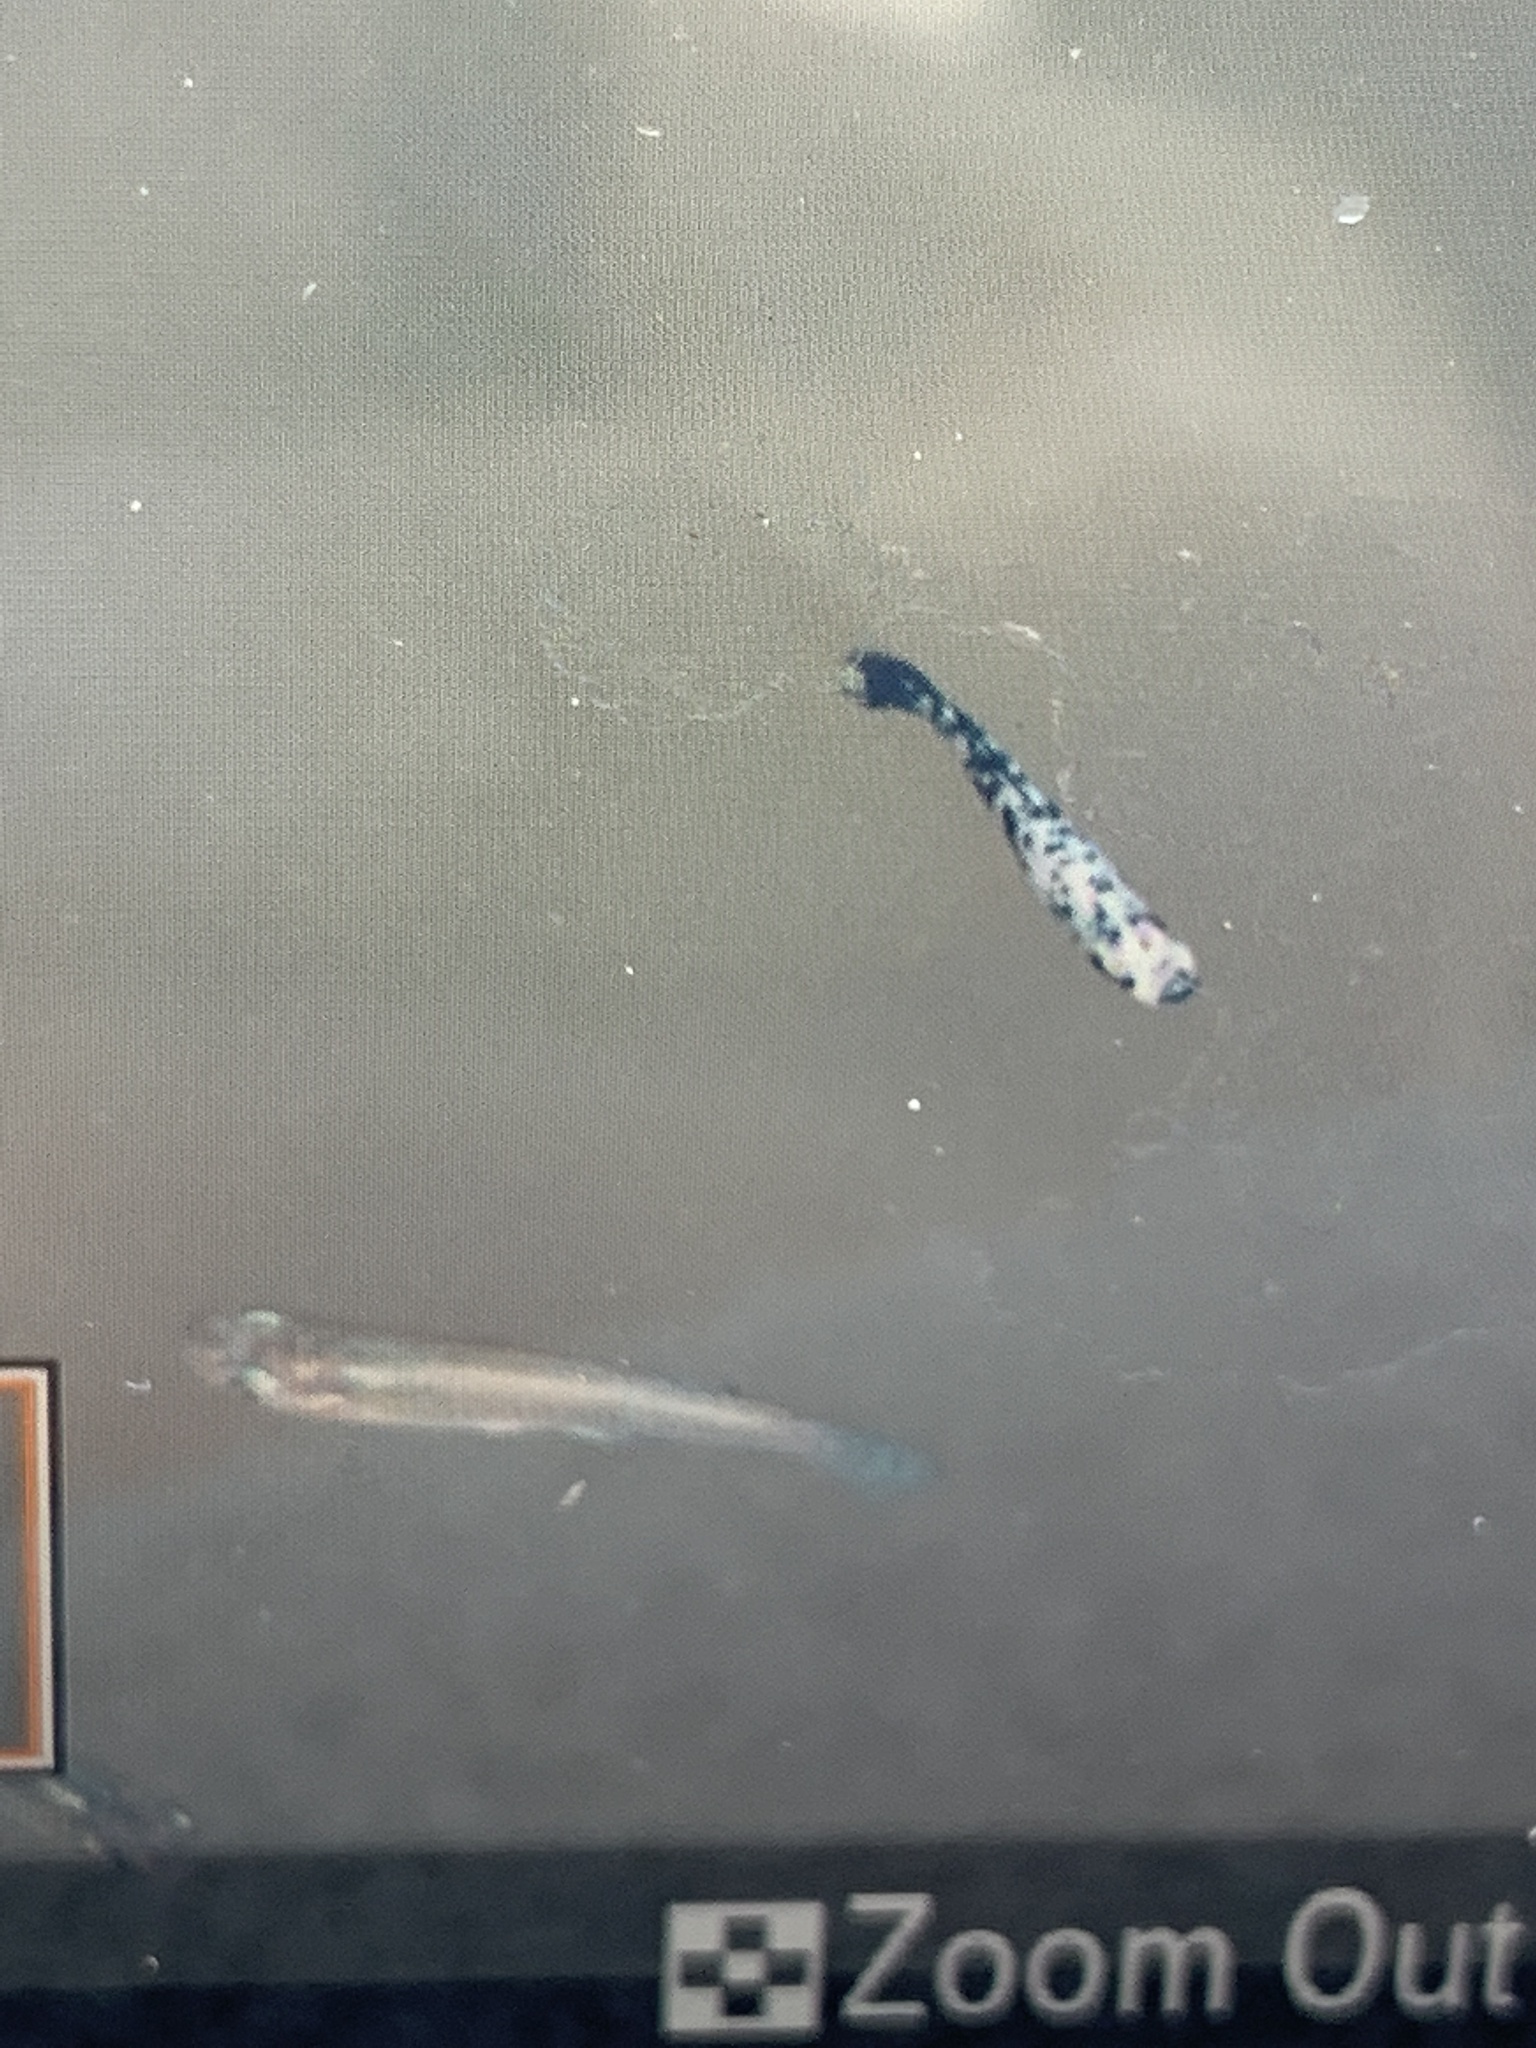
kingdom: Animalia
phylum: Chordata
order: Cyprinodontiformes
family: Poeciliidae
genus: Gambusia
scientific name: Gambusia holbrooki
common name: Eastern mosquitofish
